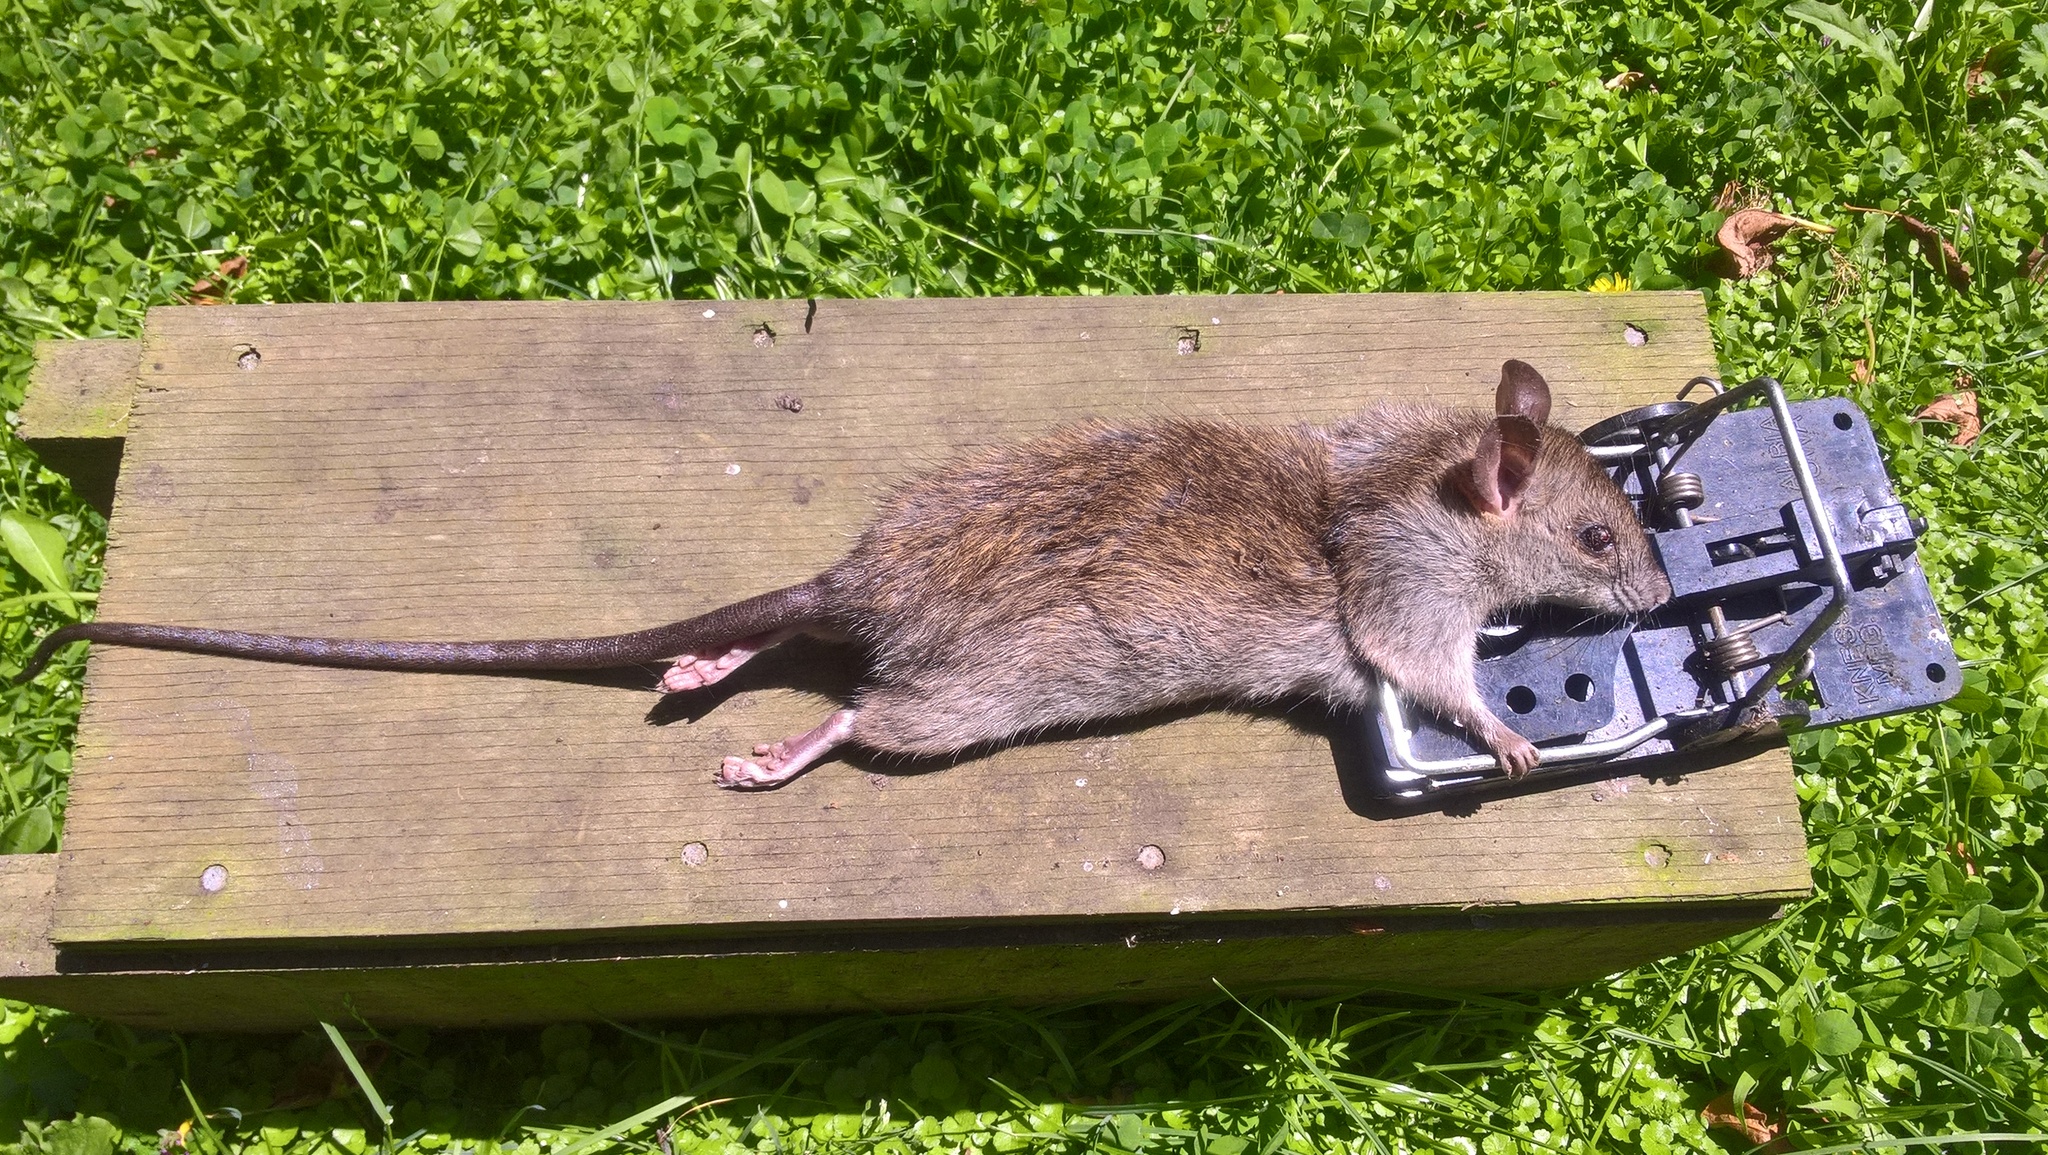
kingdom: Animalia
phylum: Chordata
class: Mammalia
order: Rodentia
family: Muridae
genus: Rattus
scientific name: Rattus rattus
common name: Black rat
